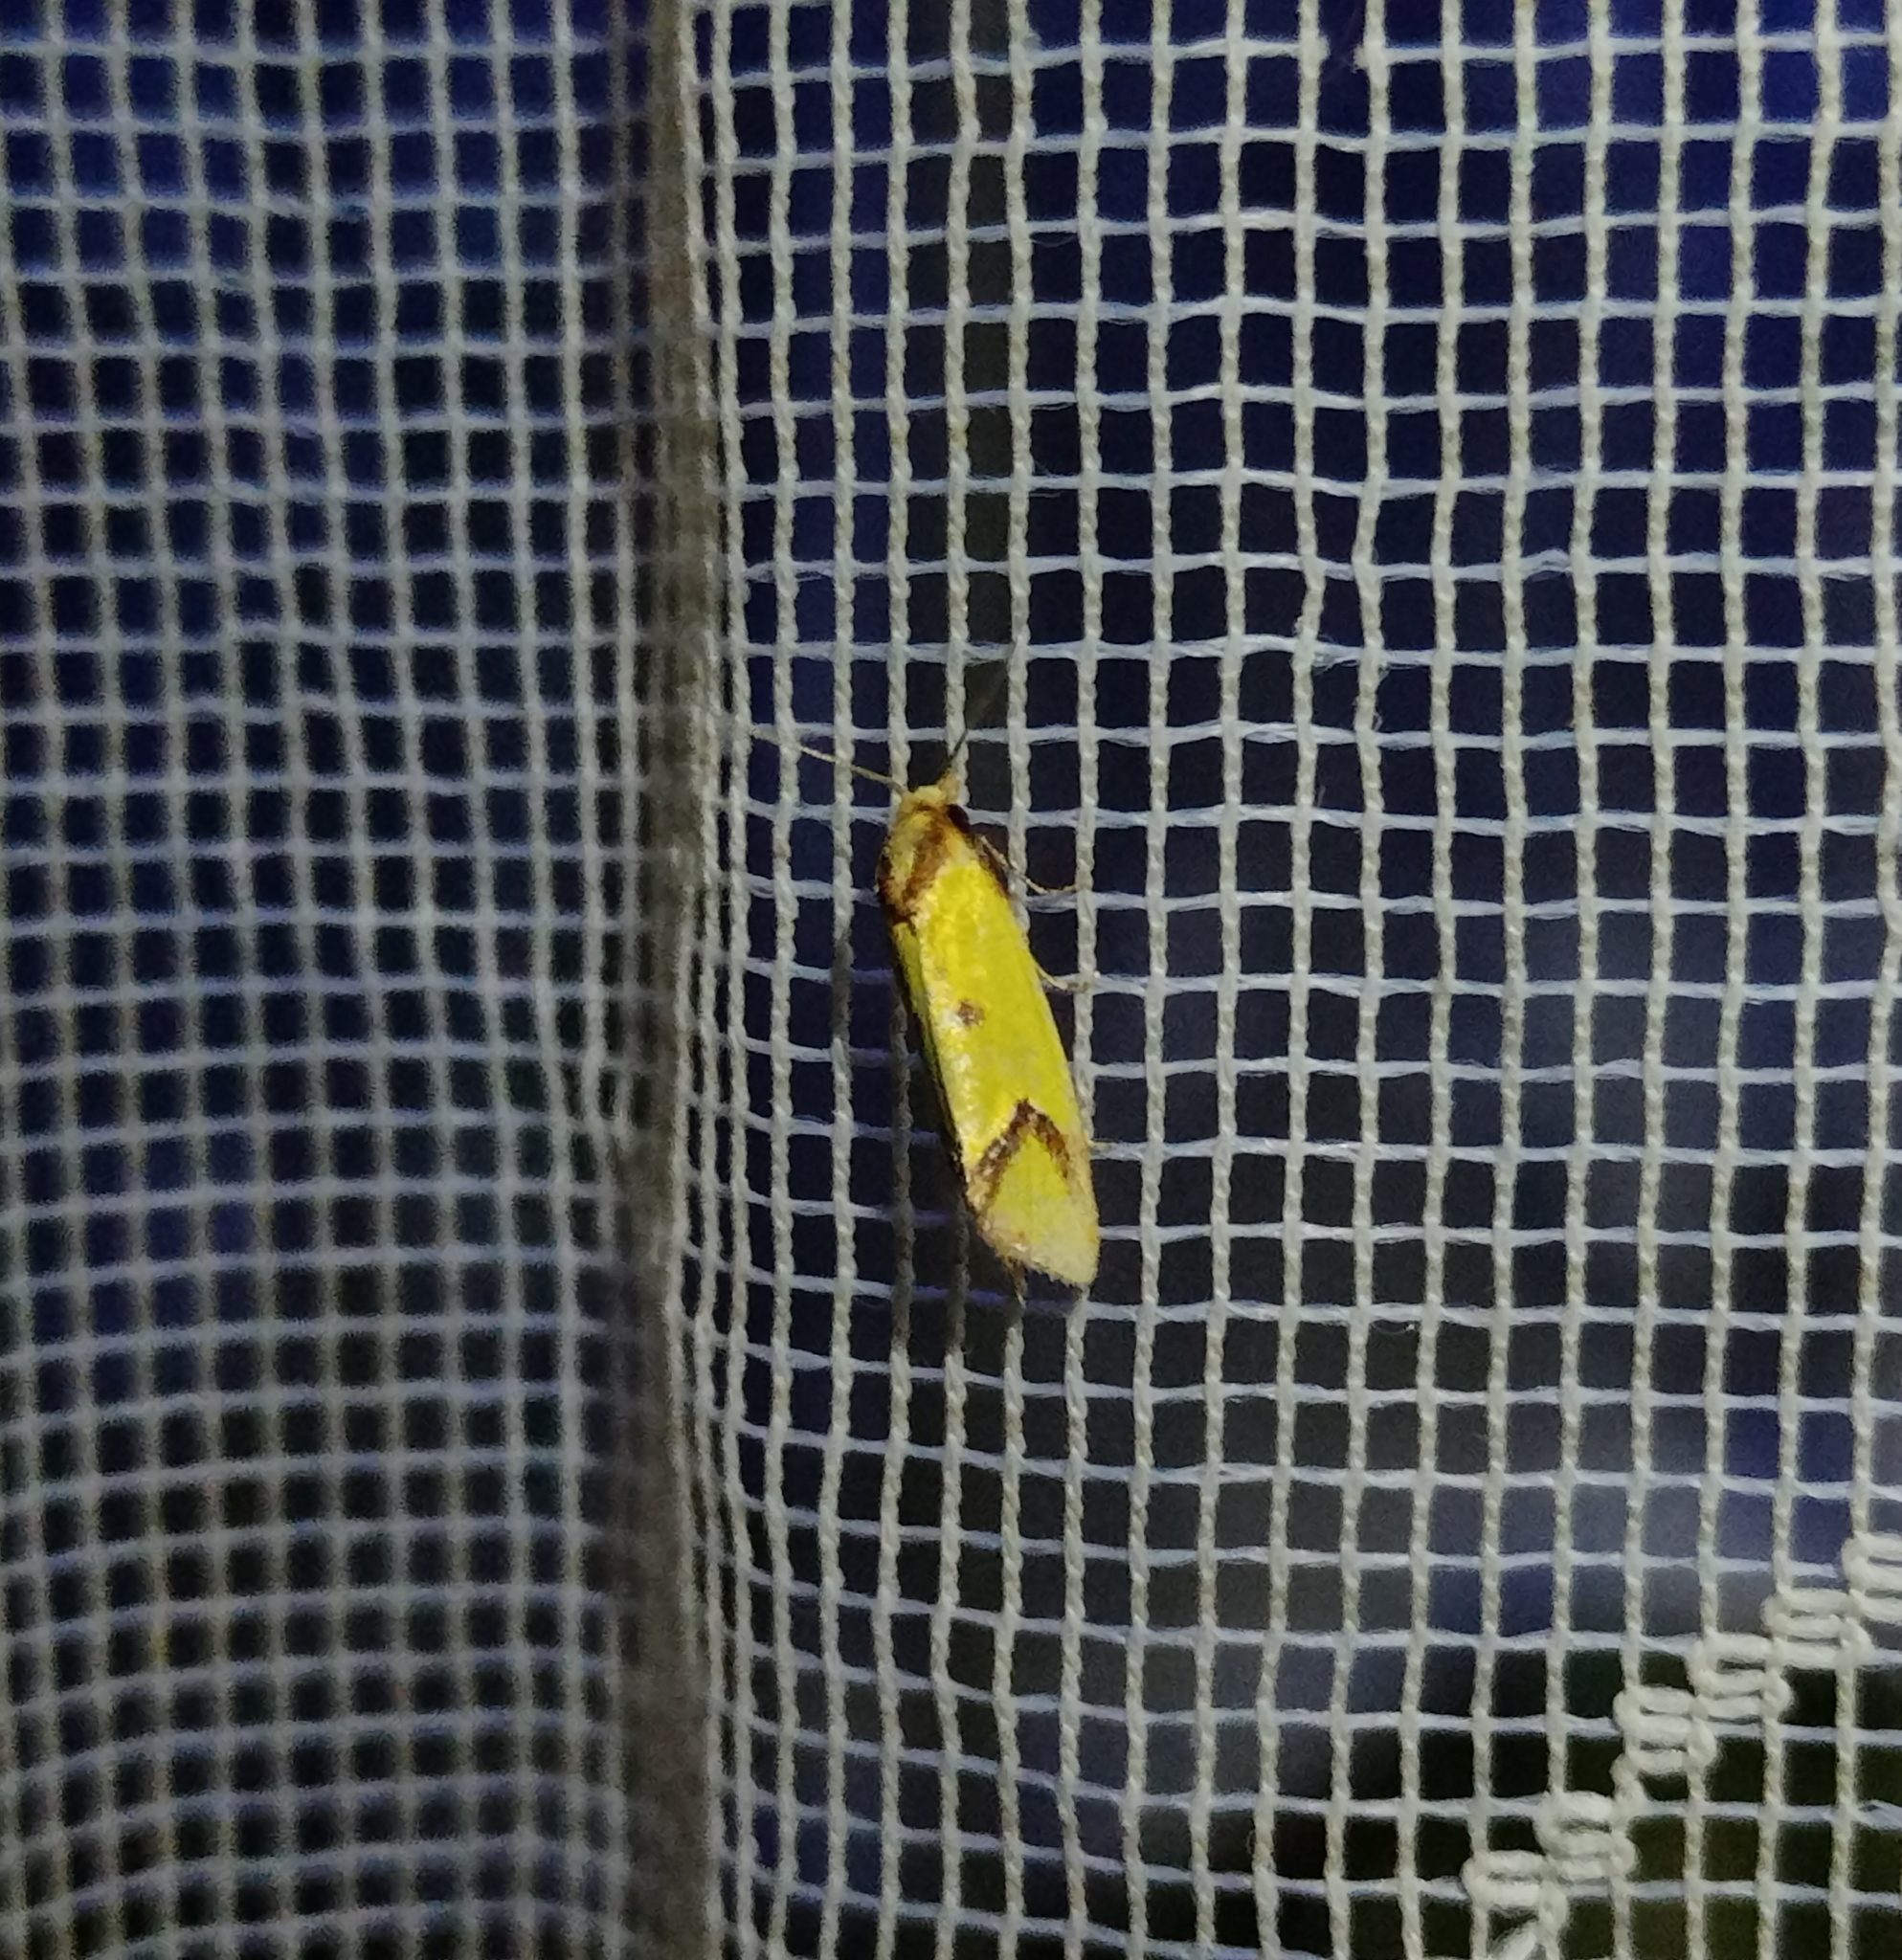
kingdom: Animalia
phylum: Arthropoda
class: Insecta
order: Lepidoptera
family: Tortricidae
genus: Agapeta
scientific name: Agapeta zoegana
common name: Sulfur knapweed root moth
